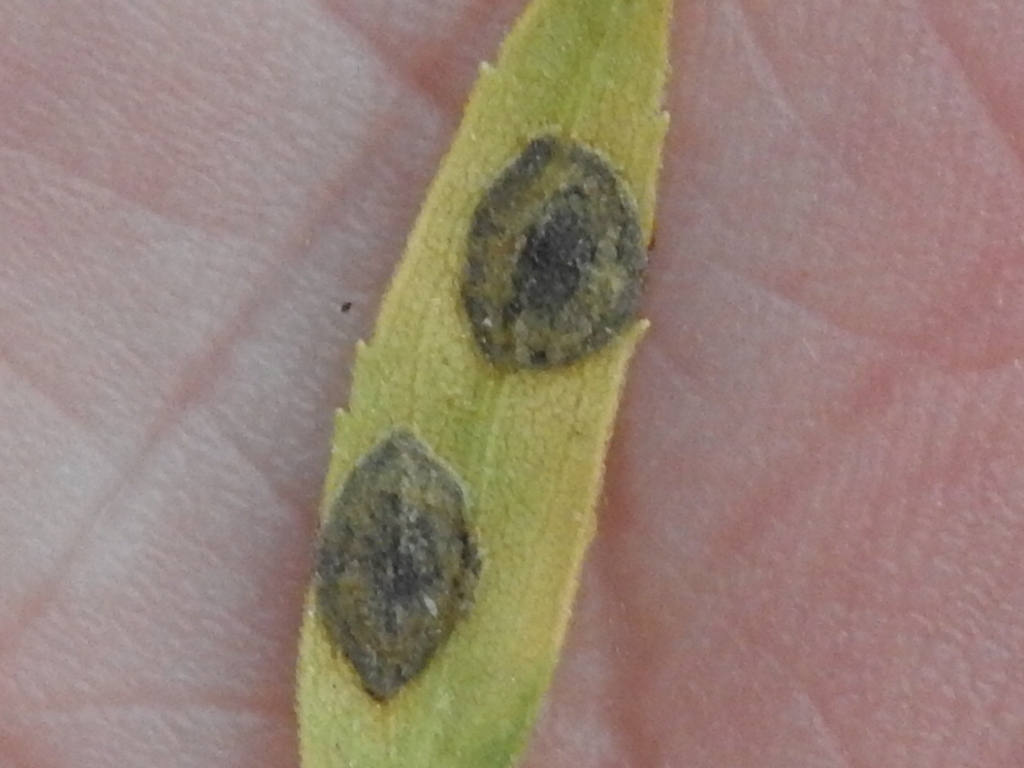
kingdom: Animalia
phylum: Arthropoda
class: Insecta
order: Diptera
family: Cecidomyiidae
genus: Asteromyia
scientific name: Asteromyia carbonifera
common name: Carbonifera goldenrod gall midge
